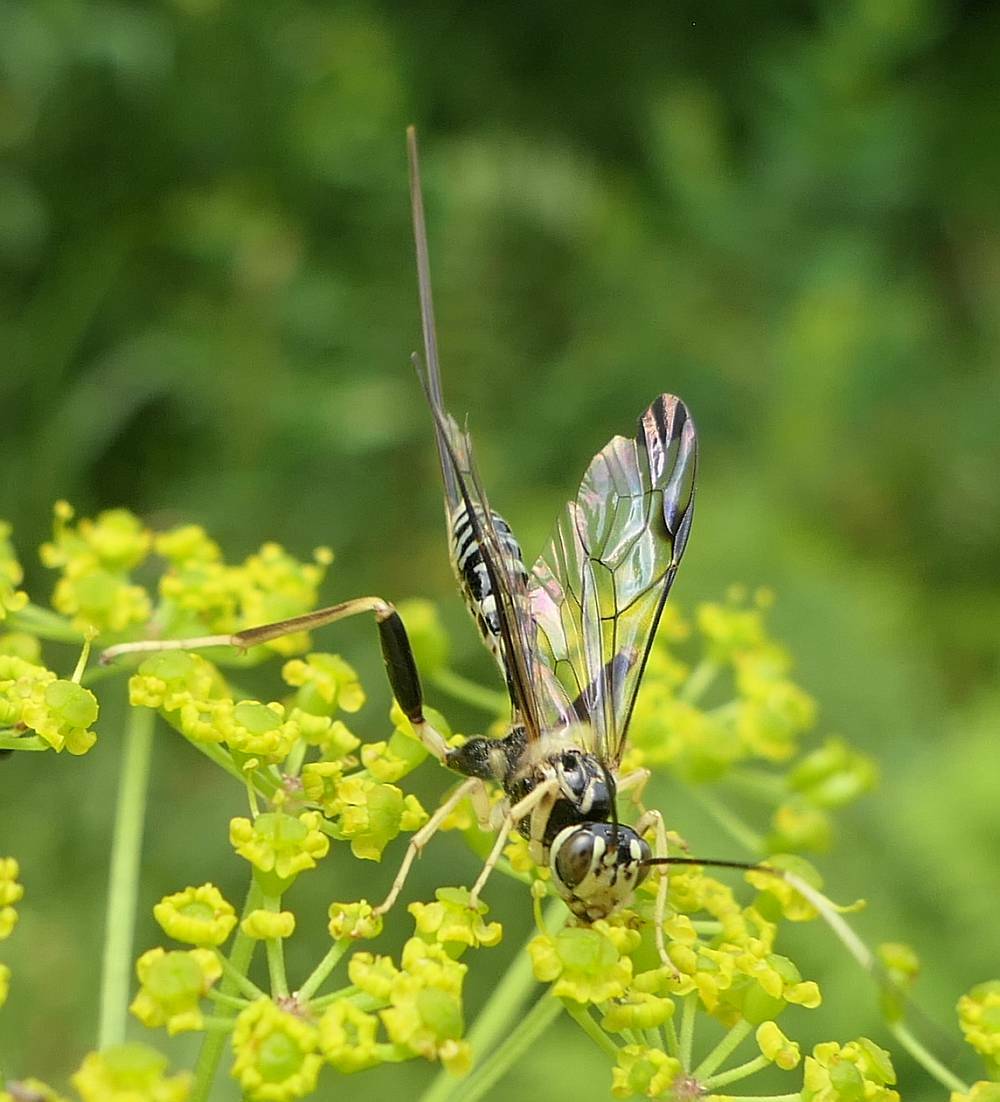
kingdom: Animalia
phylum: Arthropoda
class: Insecta
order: Hymenoptera
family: Ichneumonidae
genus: Spilopteron
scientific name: Spilopteron formosum
